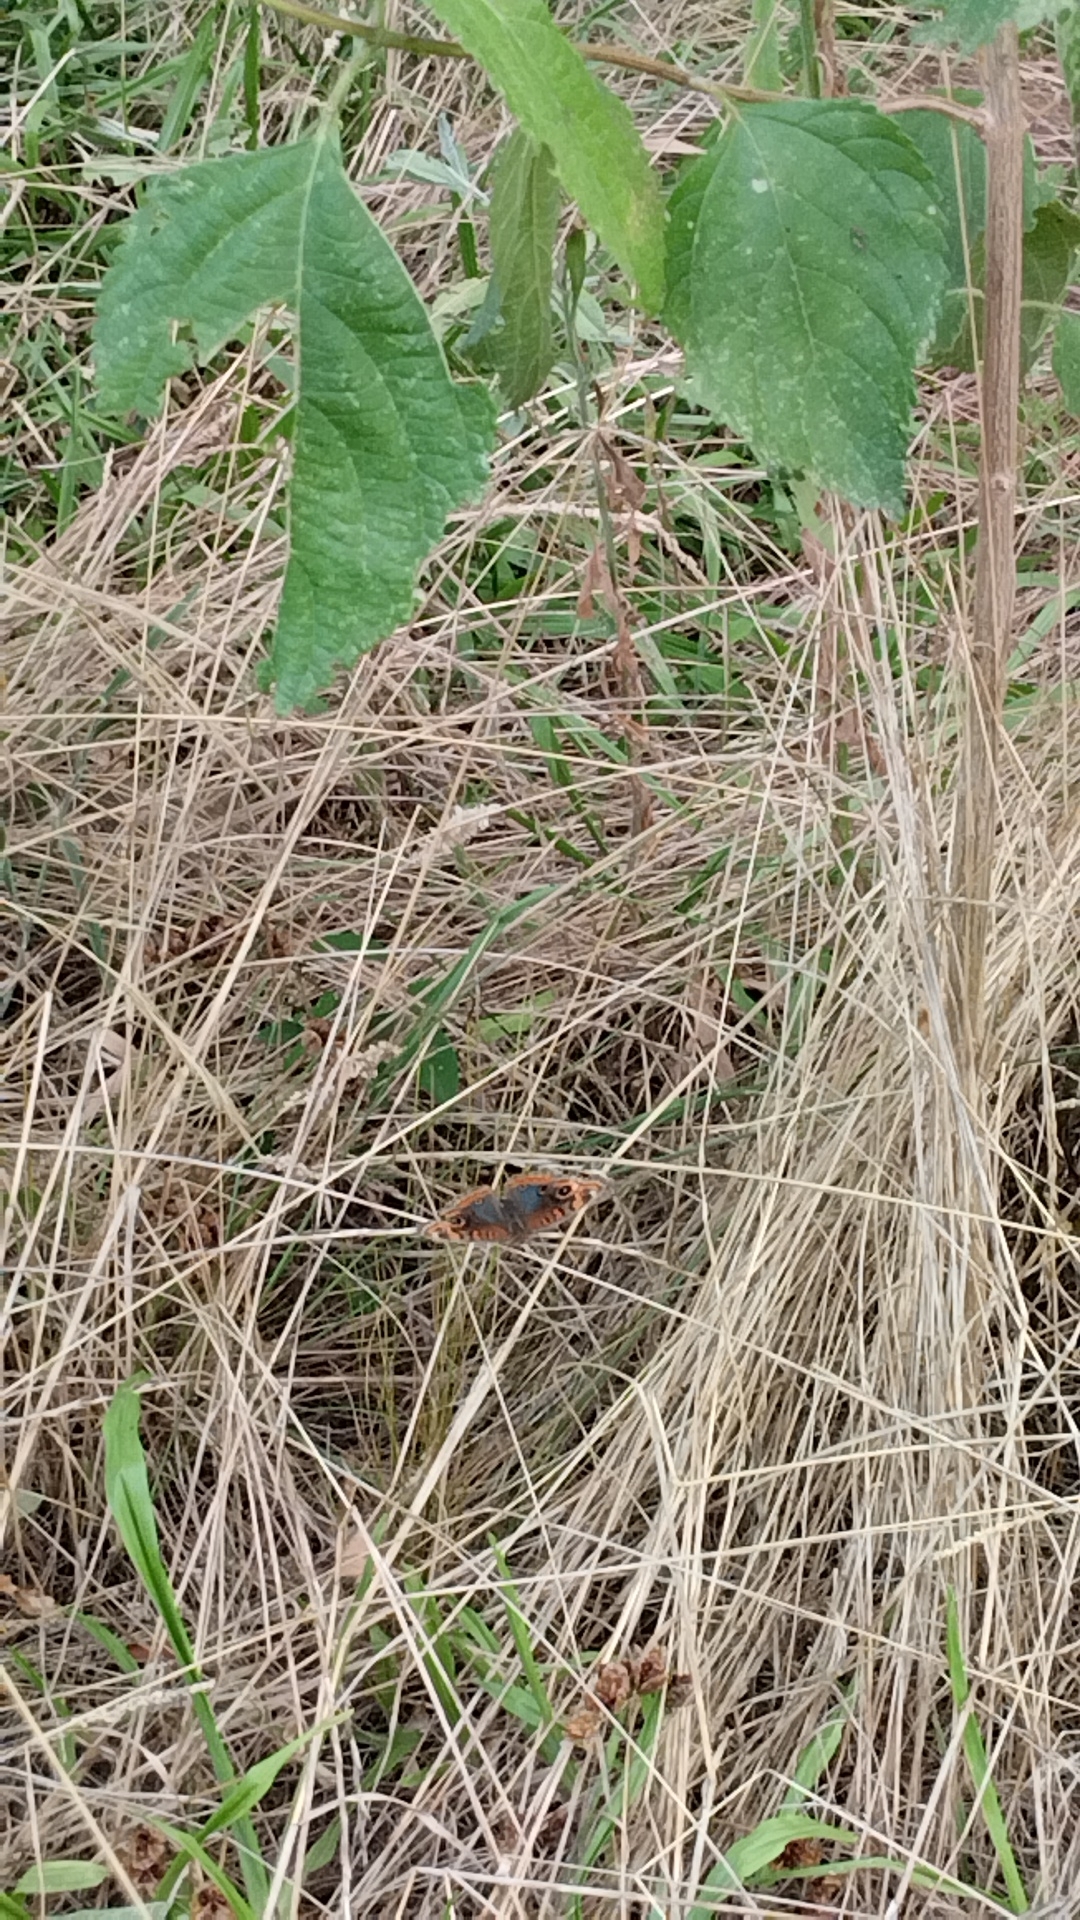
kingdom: Animalia
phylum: Arthropoda
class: Insecta
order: Lepidoptera
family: Nymphalidae
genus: Junonia
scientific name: Junonia lavinia
